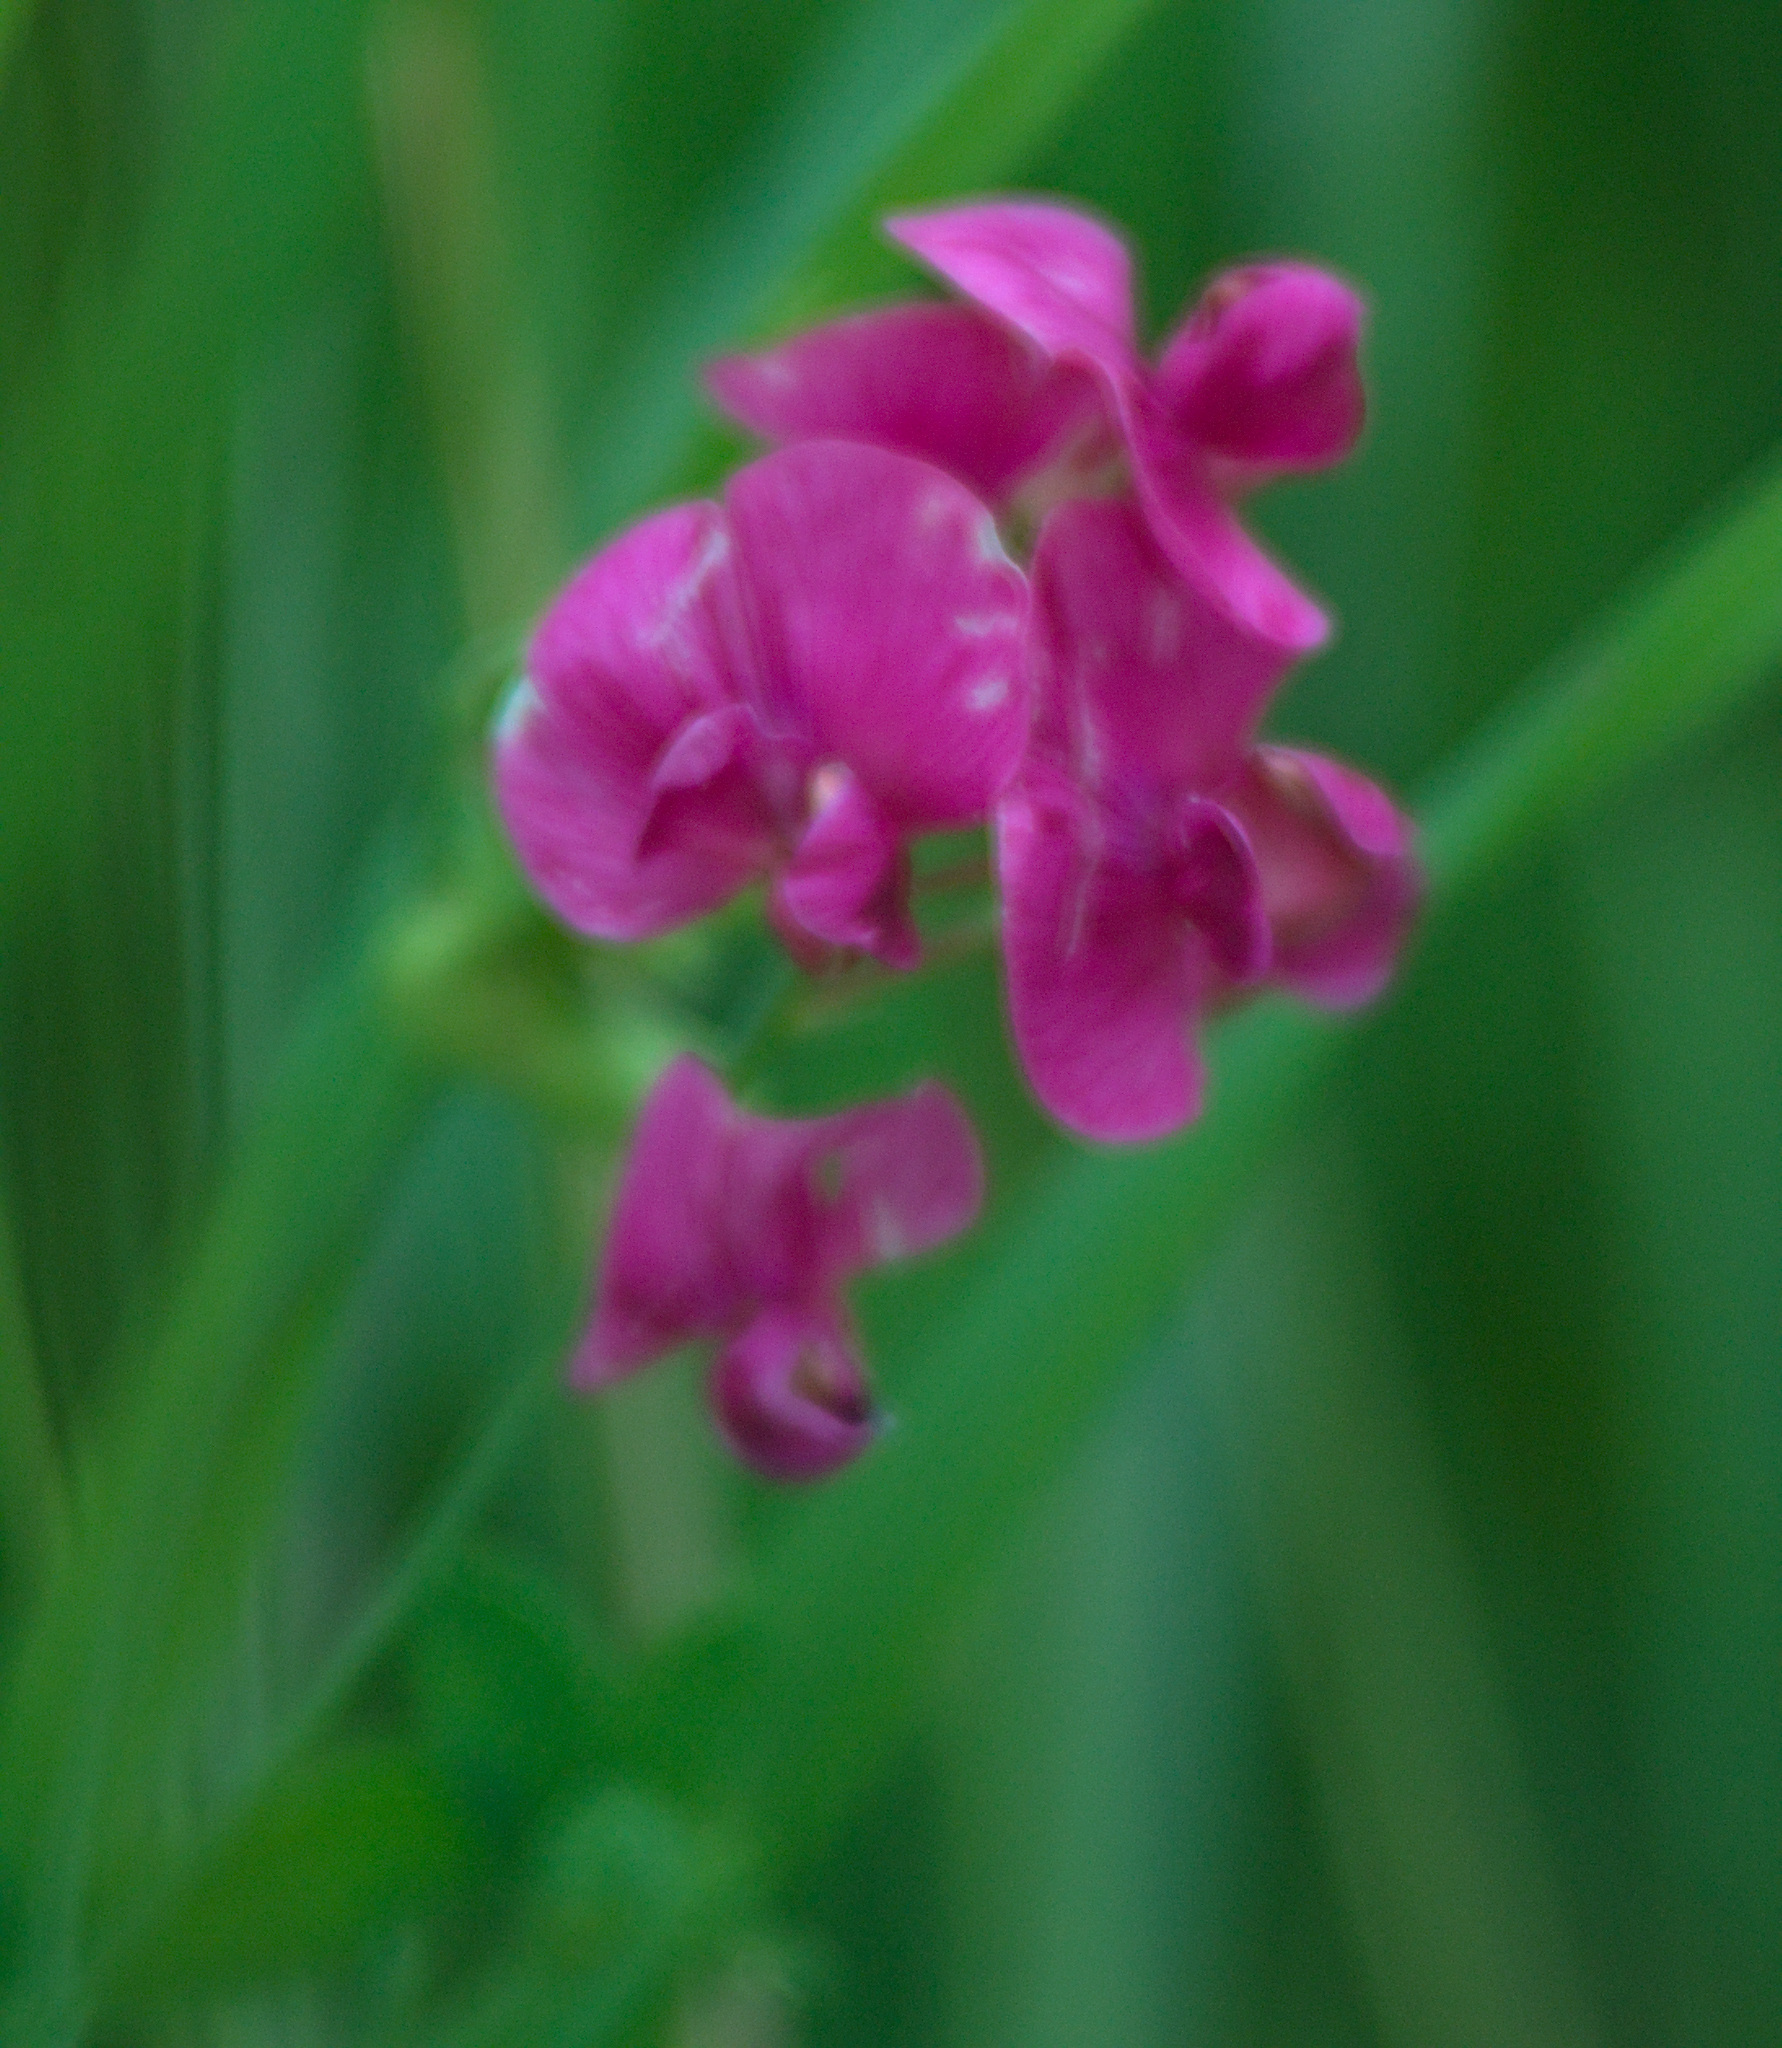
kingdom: Plantae
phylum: Tracheophyta
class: Magnoliopsida
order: Fabales
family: Fabaceae
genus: Lathyrus
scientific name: Lathyrus tuberosus
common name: Tuberous pea
